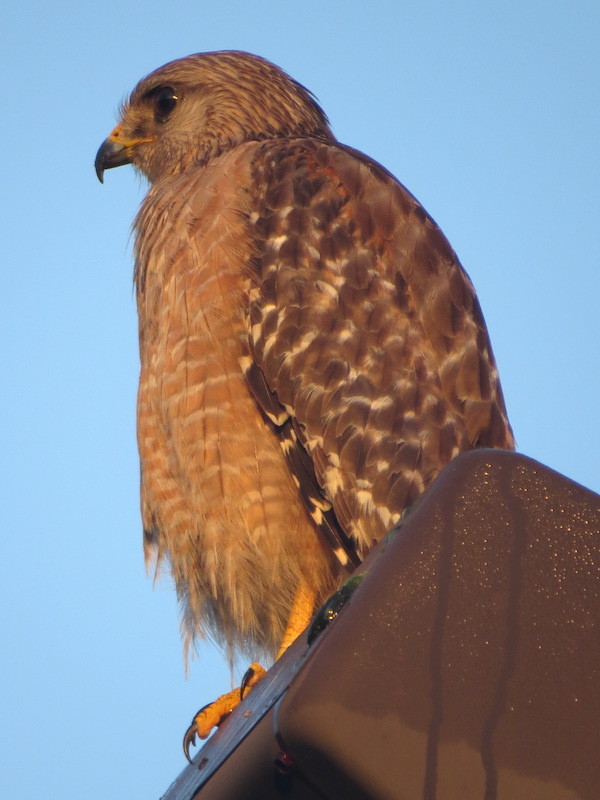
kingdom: Animalia
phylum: Chordata
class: Aves
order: Accipitriformes
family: Accipitridae
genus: Buteo
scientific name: Buteo lineatus
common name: Red-shouldered hawk
